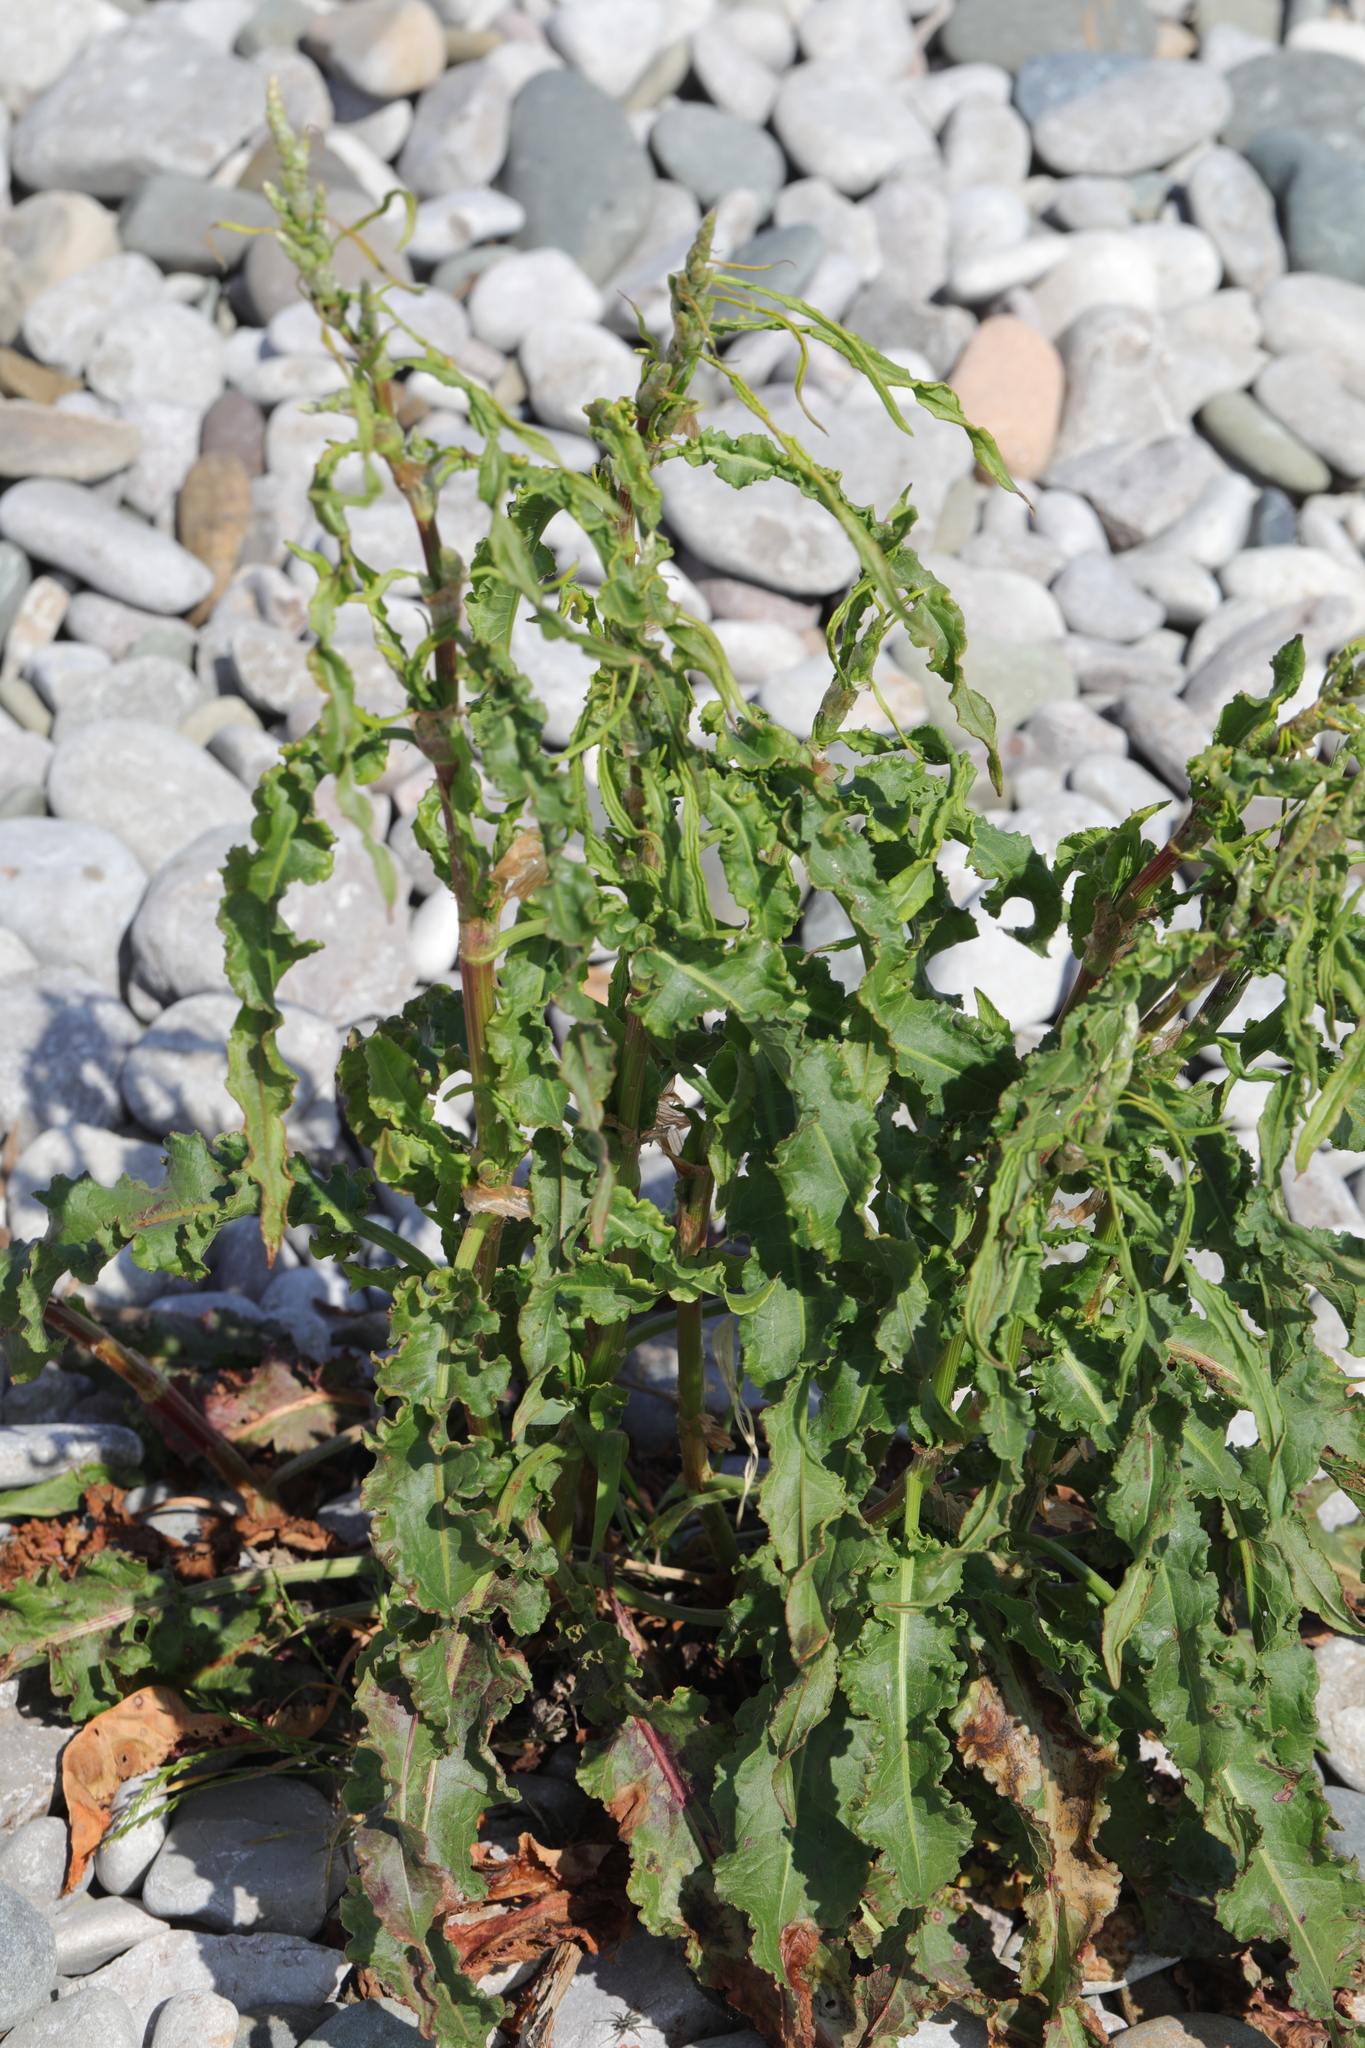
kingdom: Plantae
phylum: Tracheophyta
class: Magnoliopsida
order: Caryophyllales
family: Polygonaceae
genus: Rumex
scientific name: Rumex crispus
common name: Curled dock
